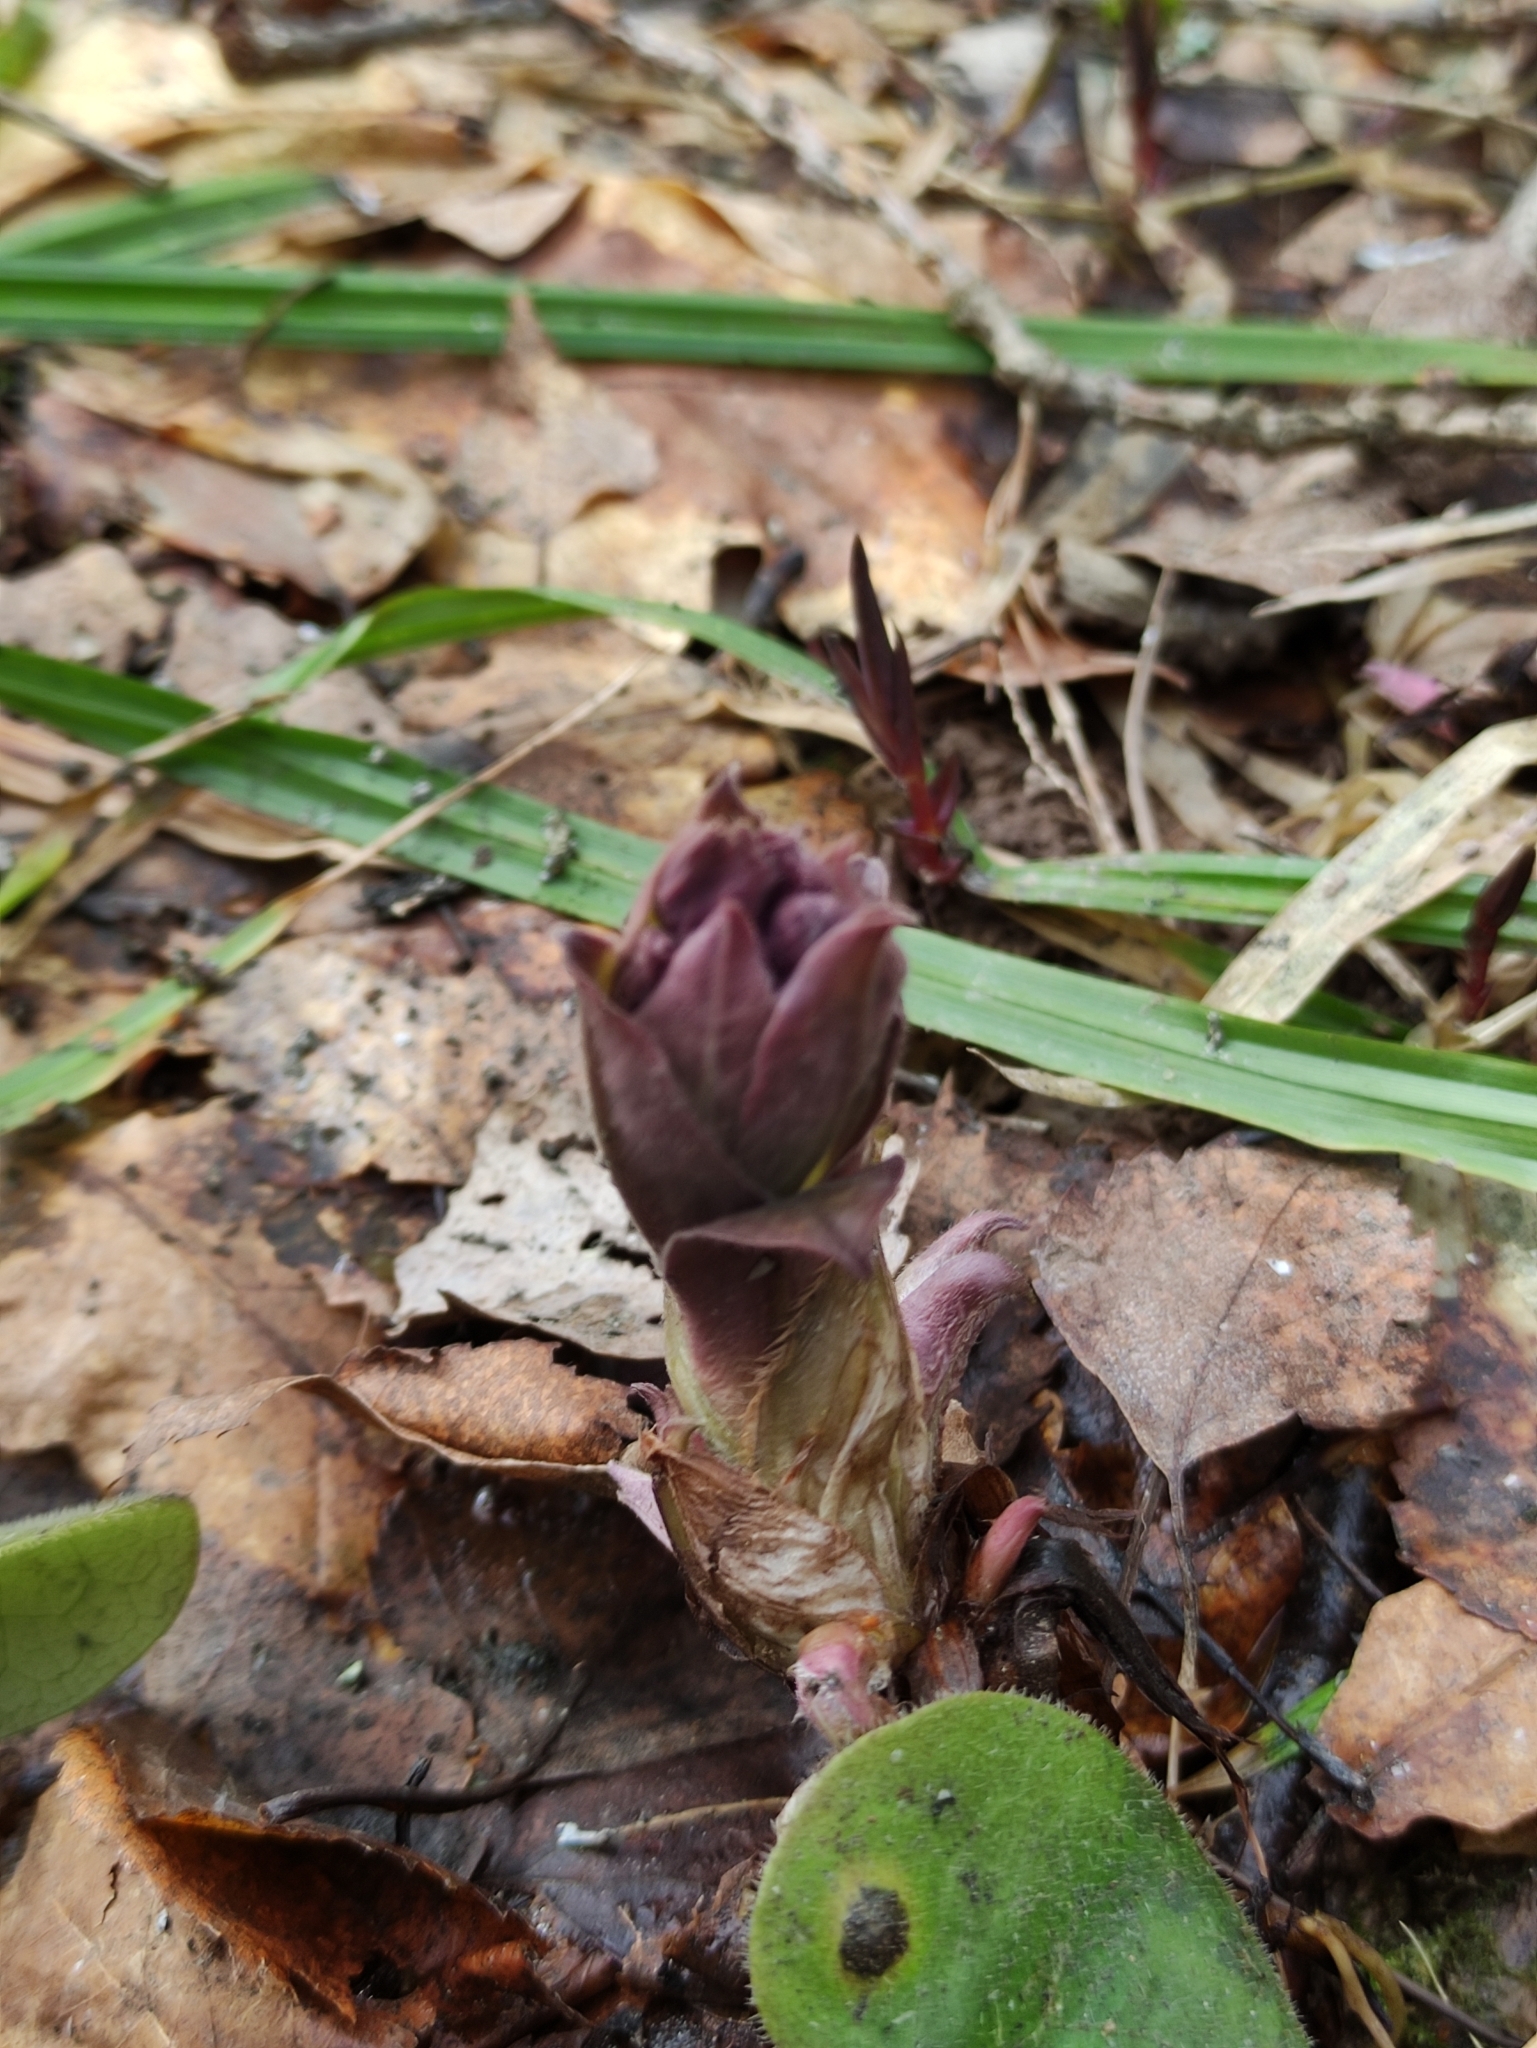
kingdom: Plantae
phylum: Tracheophyta
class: Magnoliopsida
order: Boraginales
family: Boraginaceae
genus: Pulmonaria
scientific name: Pulmonaria obscura
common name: Suffolk lungwort
